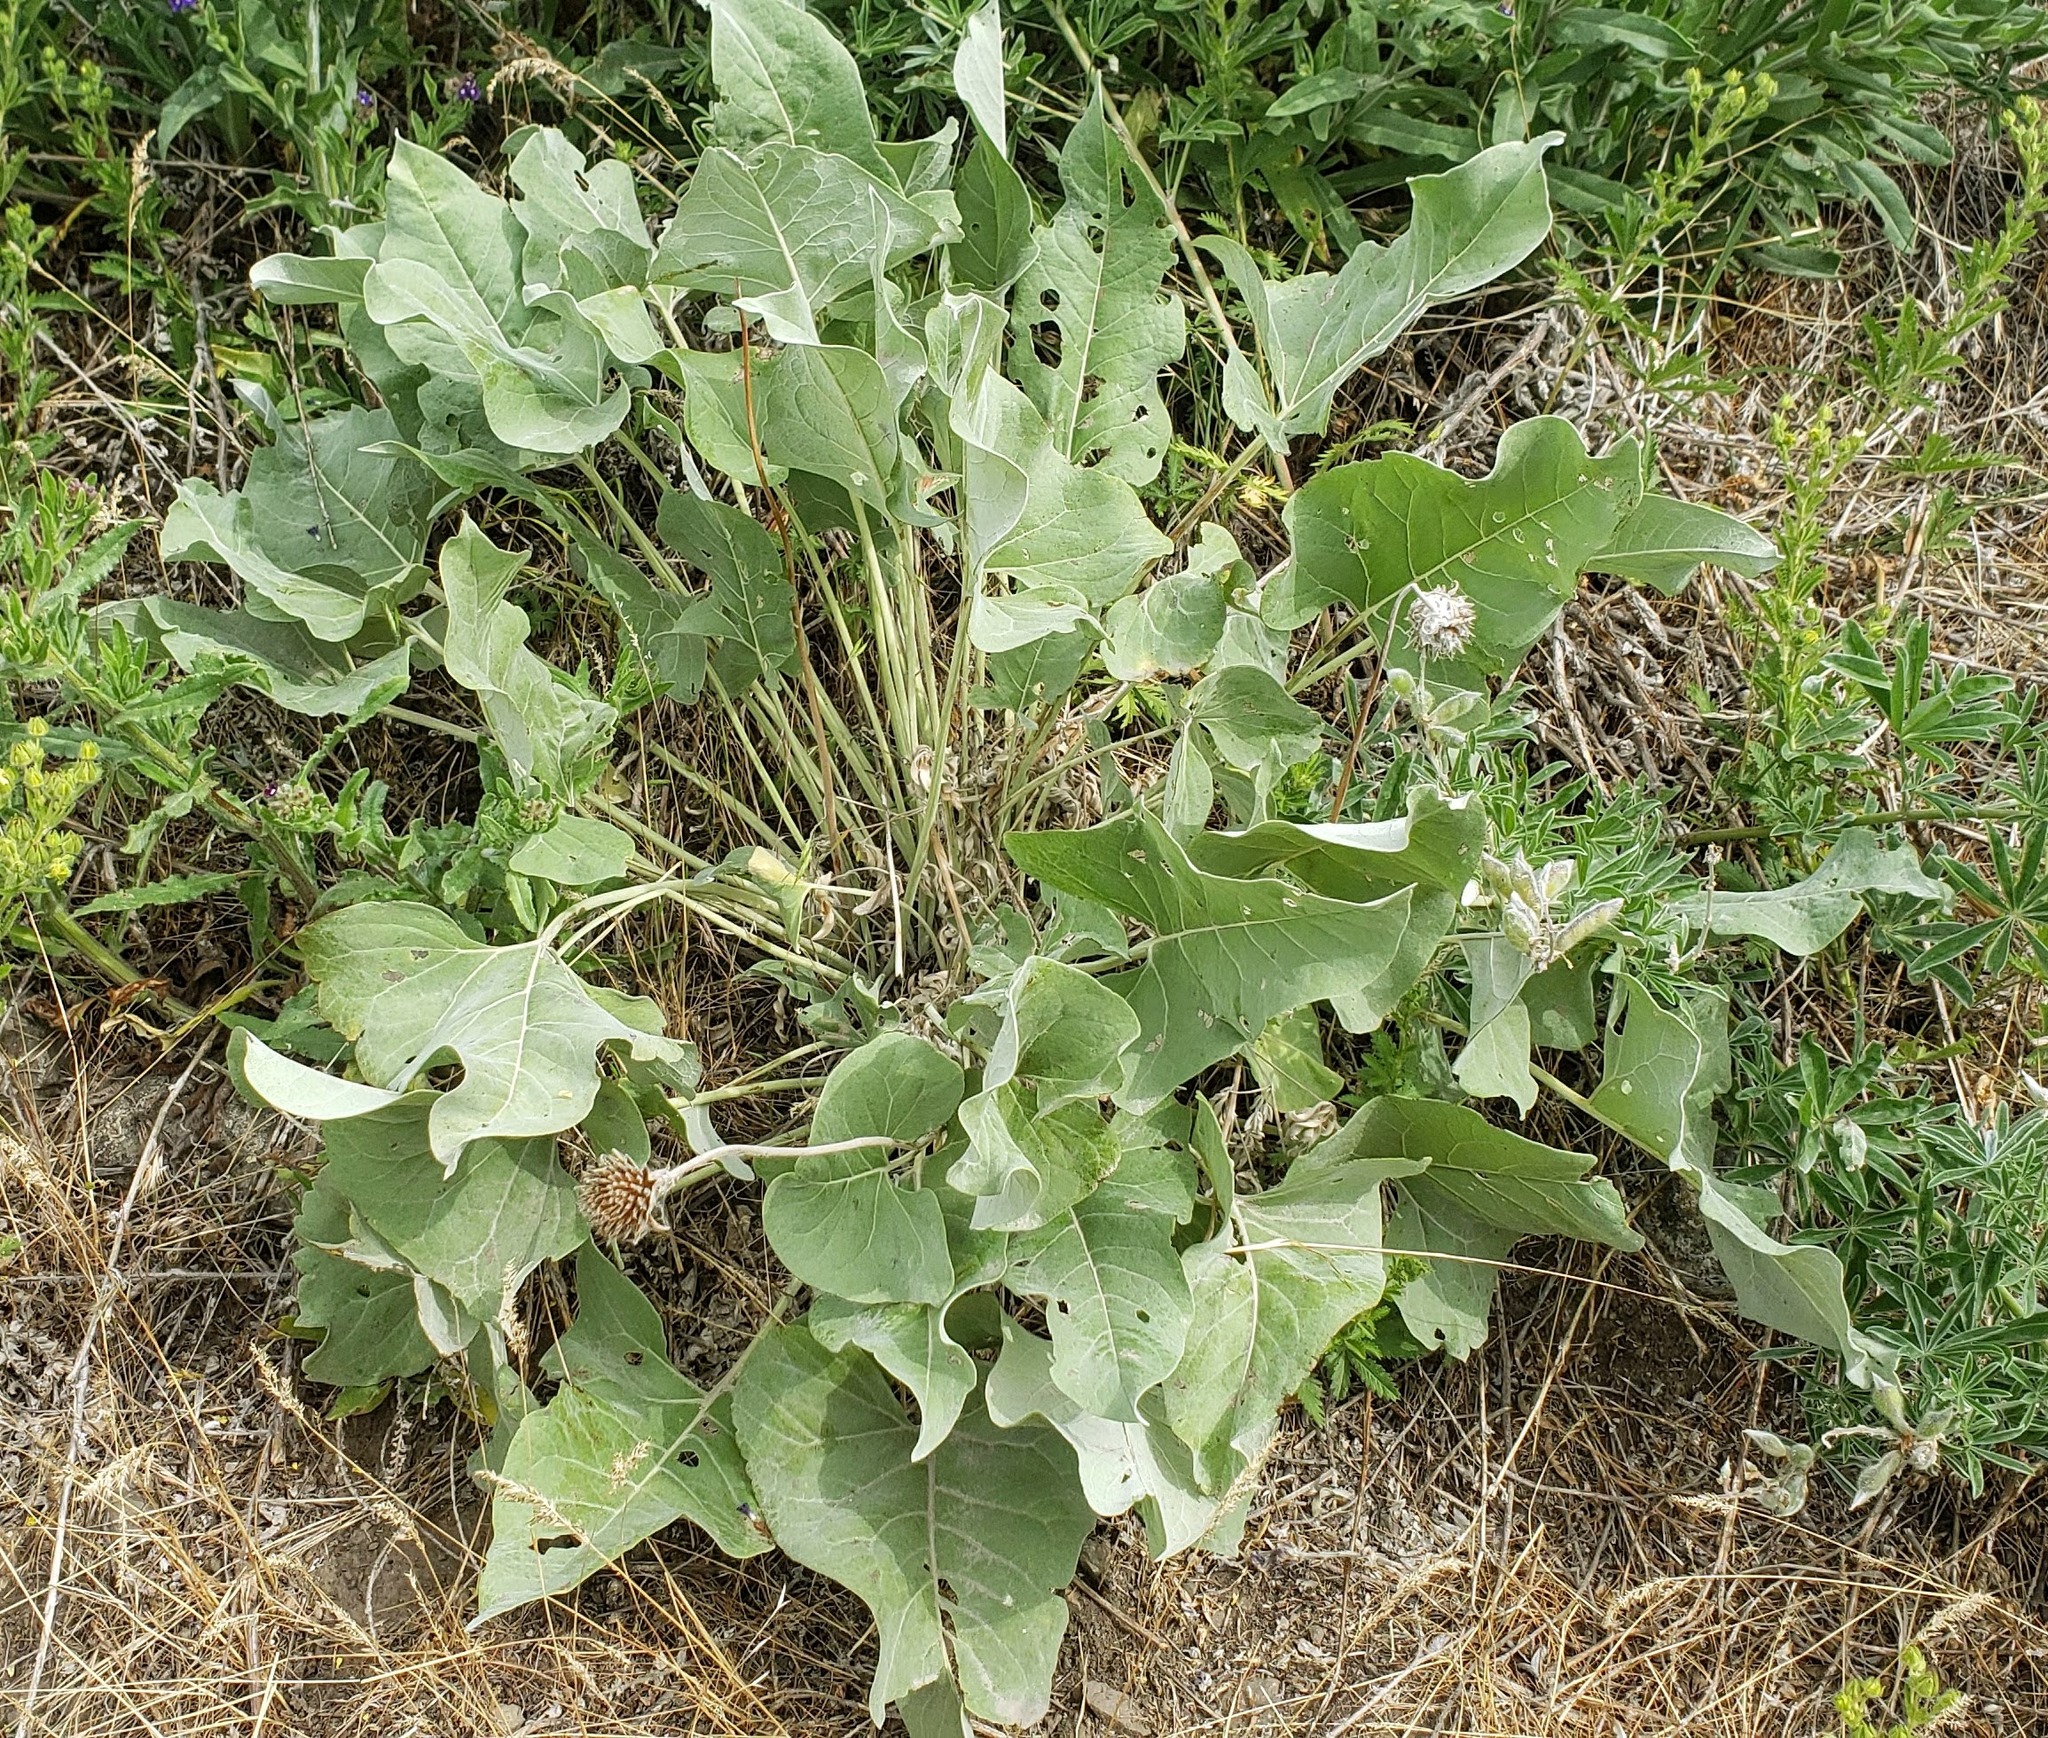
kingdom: Plantae
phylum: Tracheophyta
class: Magnoliopsida
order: Asterales
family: Asteraceae
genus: Wyethia
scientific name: Wyethia sagittata
